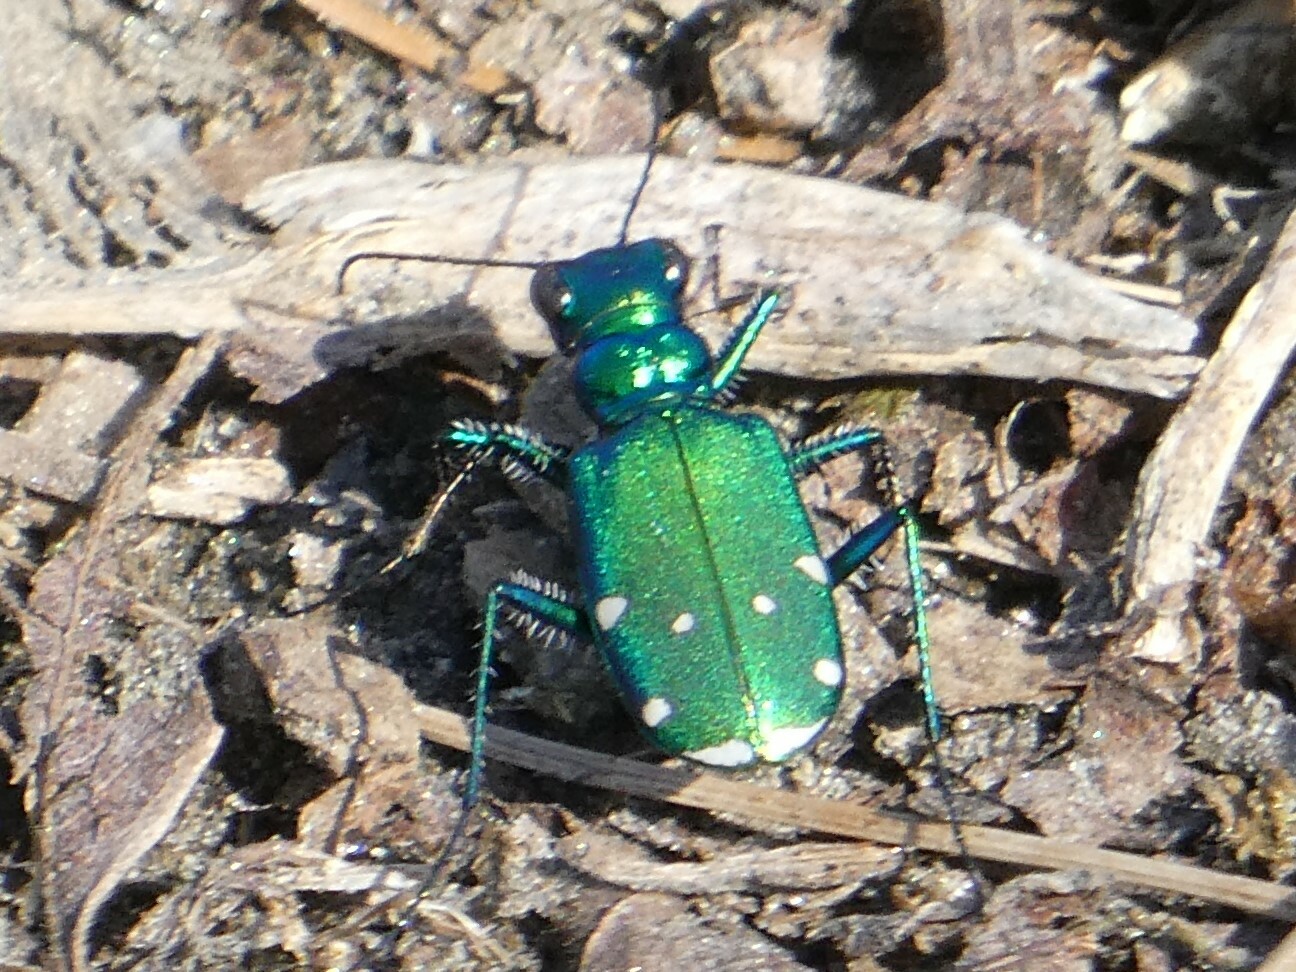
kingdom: Animalia
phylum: Arthropoda
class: Insecta
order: Coleoptera
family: Carabidae
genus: Cicindela
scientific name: Cicindela sexguttata
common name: Six-spotted tiger beetle
